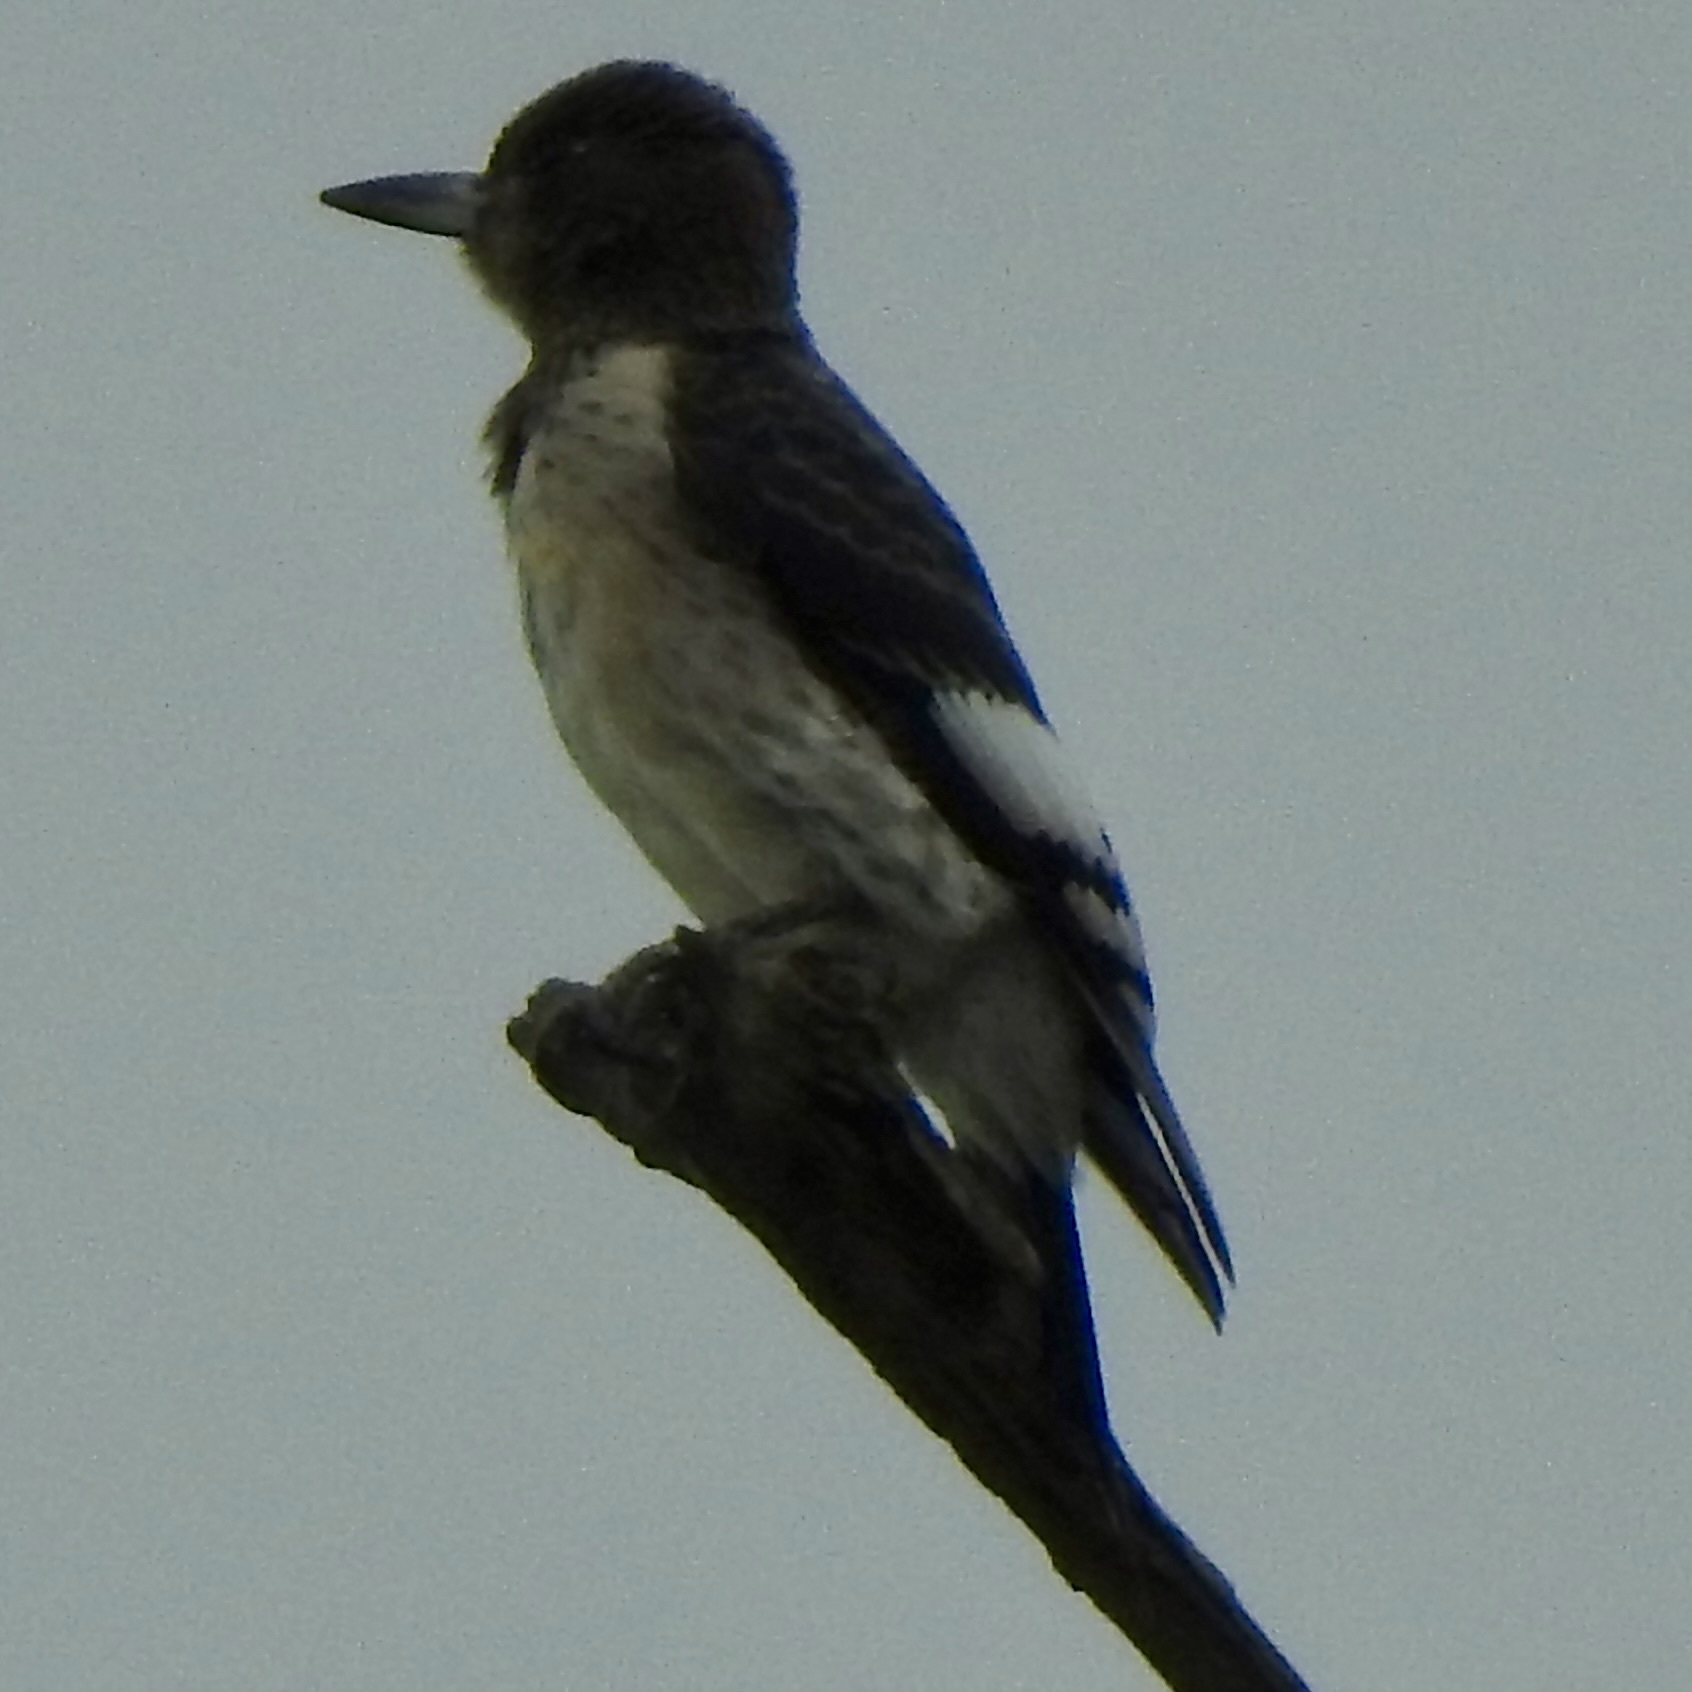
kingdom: Animalia
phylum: Chordata
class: Aves
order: Piciformes
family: Picidae
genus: Melanerpes
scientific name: Melanerpes erythrocephalus
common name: Red-headed woodpecker
